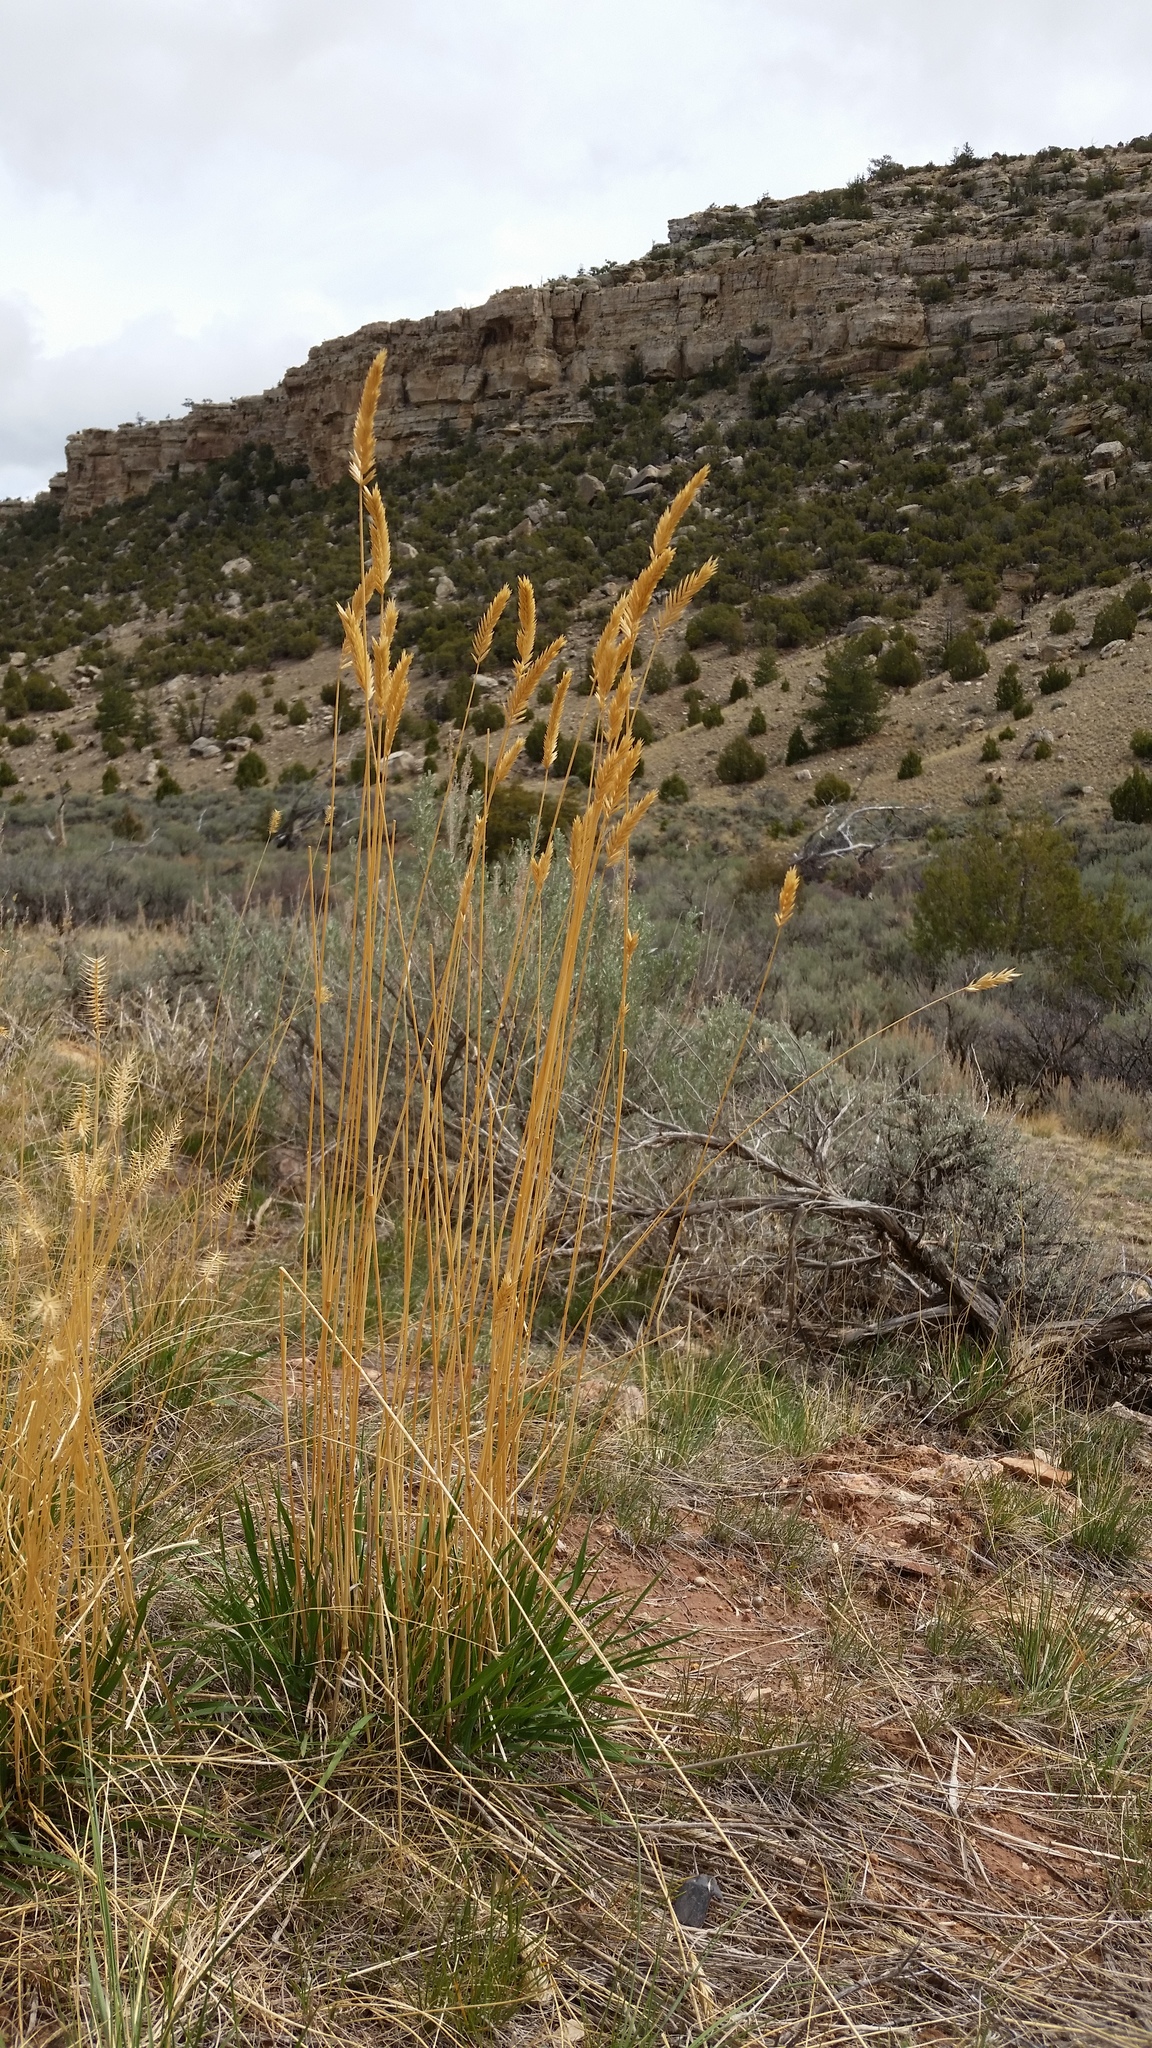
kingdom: Plantae
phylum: Tracheophyta
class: Liliopsida
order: Poales
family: Poaceae
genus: Agropyron
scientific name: Agropyron cristatum
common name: Crested wheatgrass
